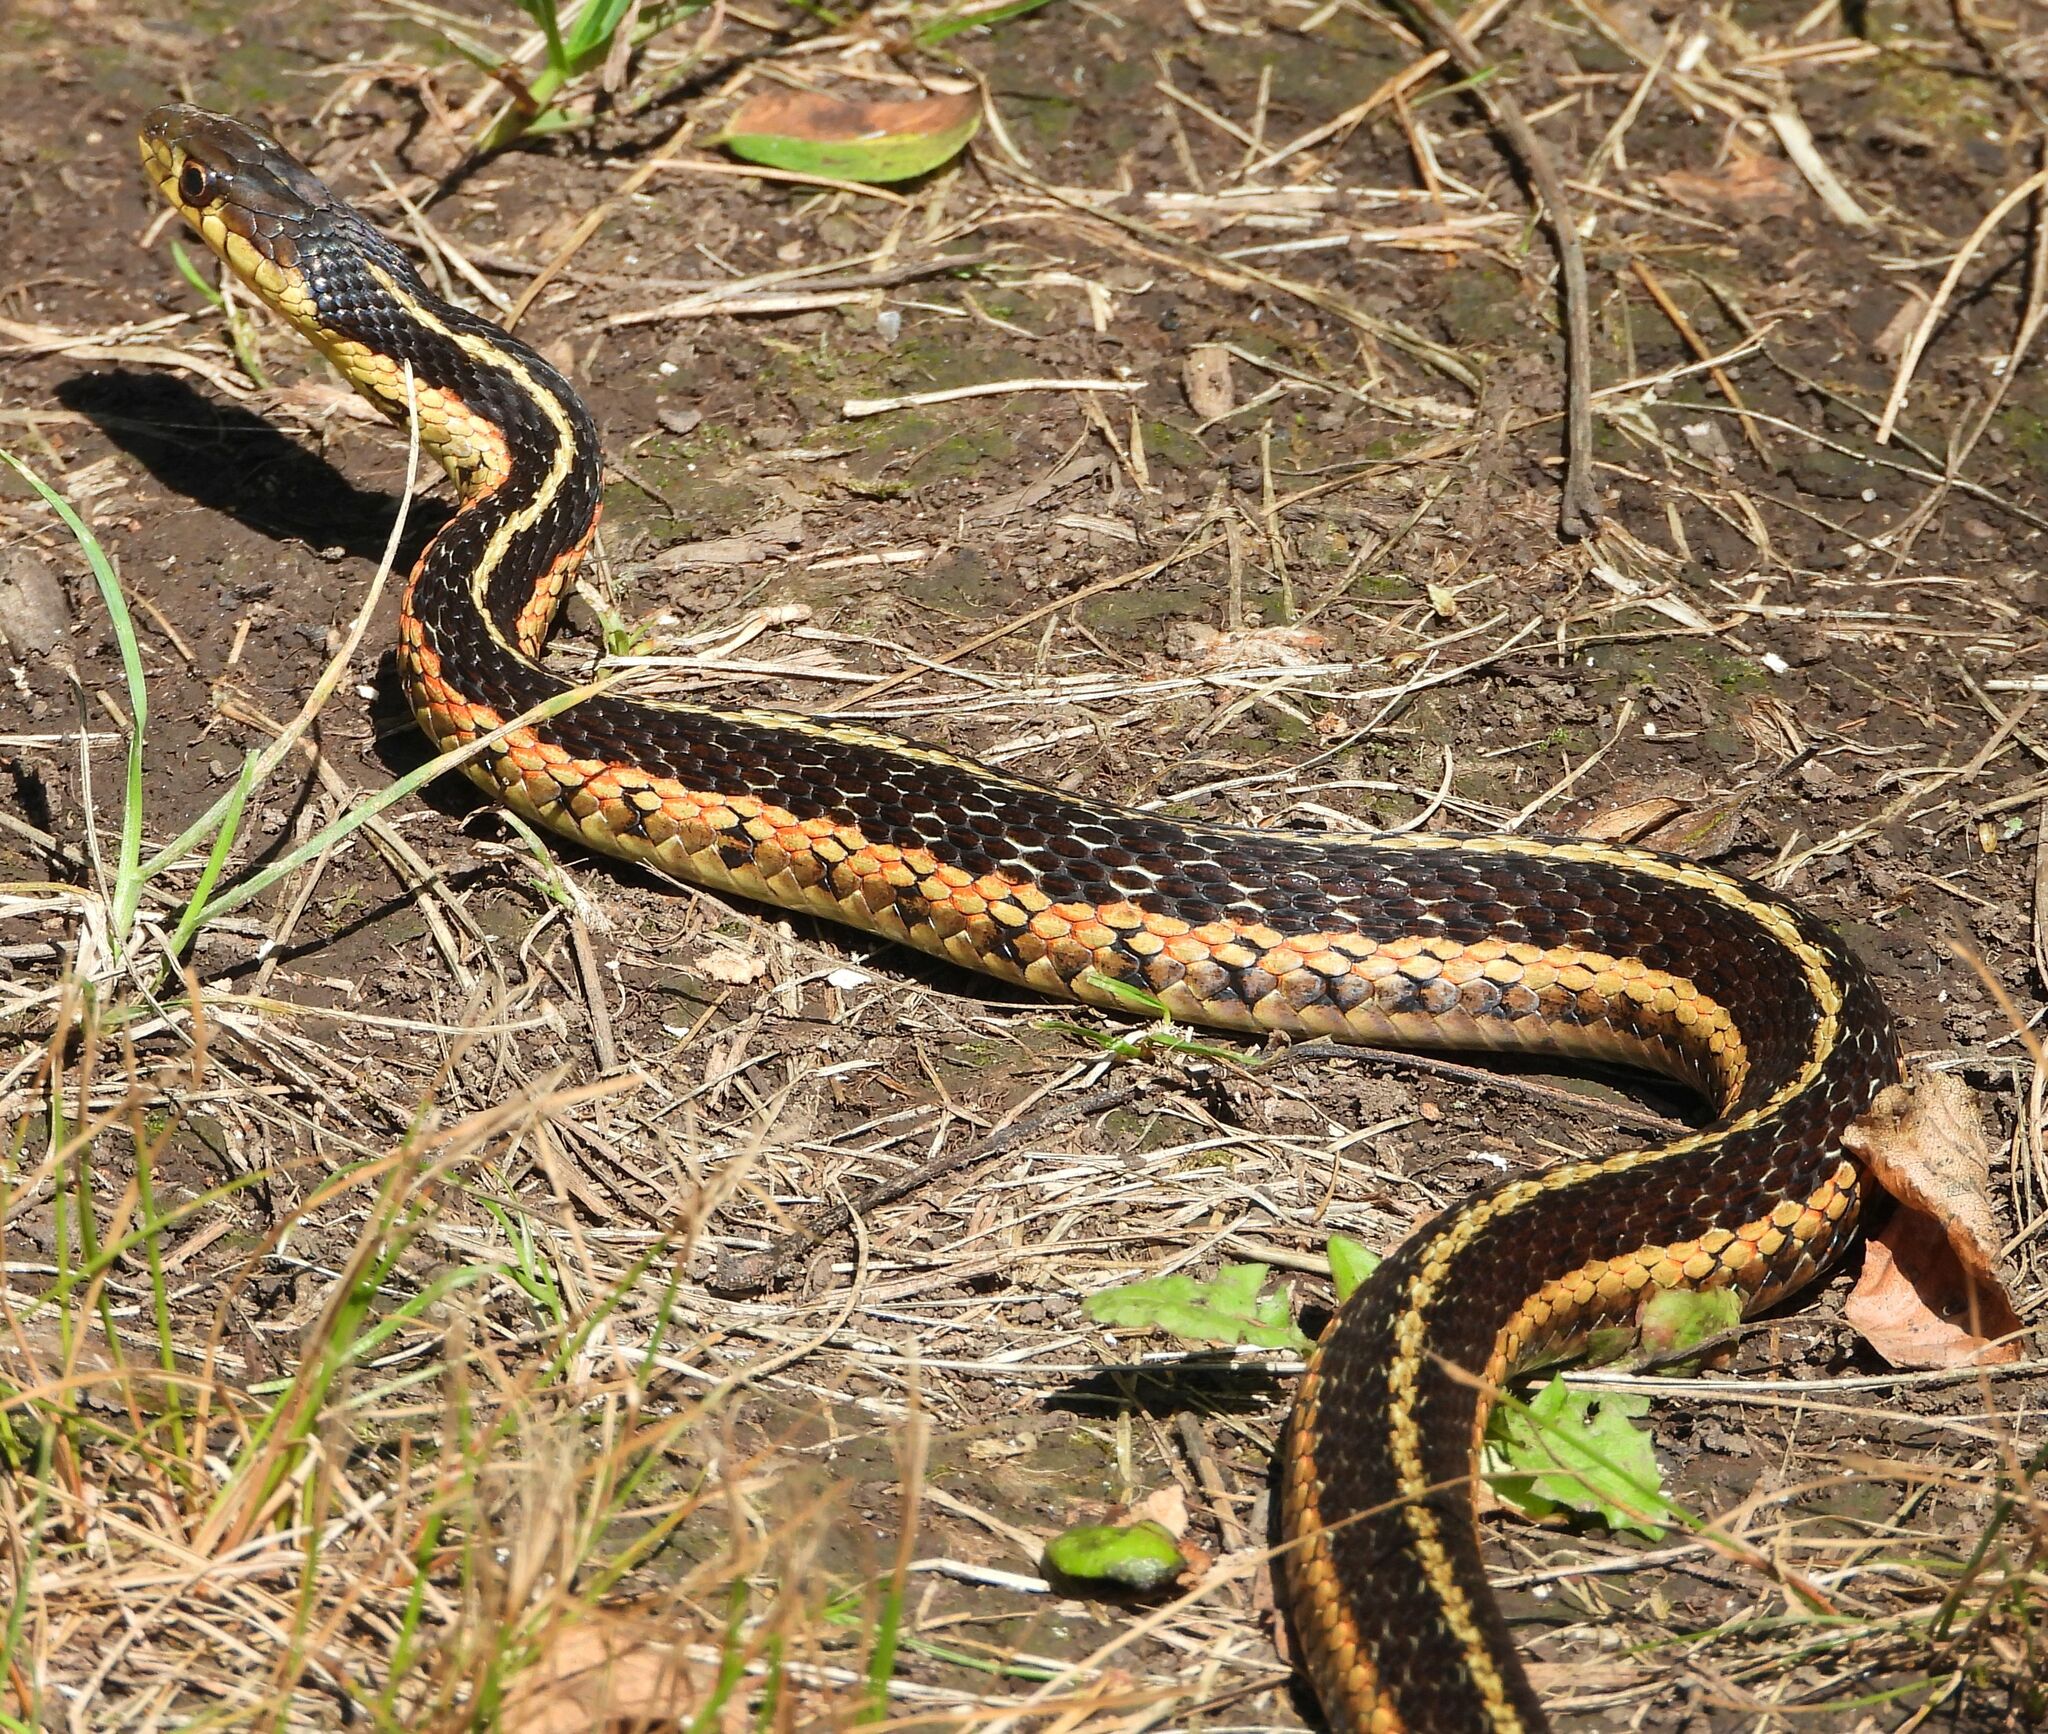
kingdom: Animalia
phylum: Chordata
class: Squamata
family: Colubridae
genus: Thamnophis
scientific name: Thamnophis sirtalis
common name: Common garter snake
